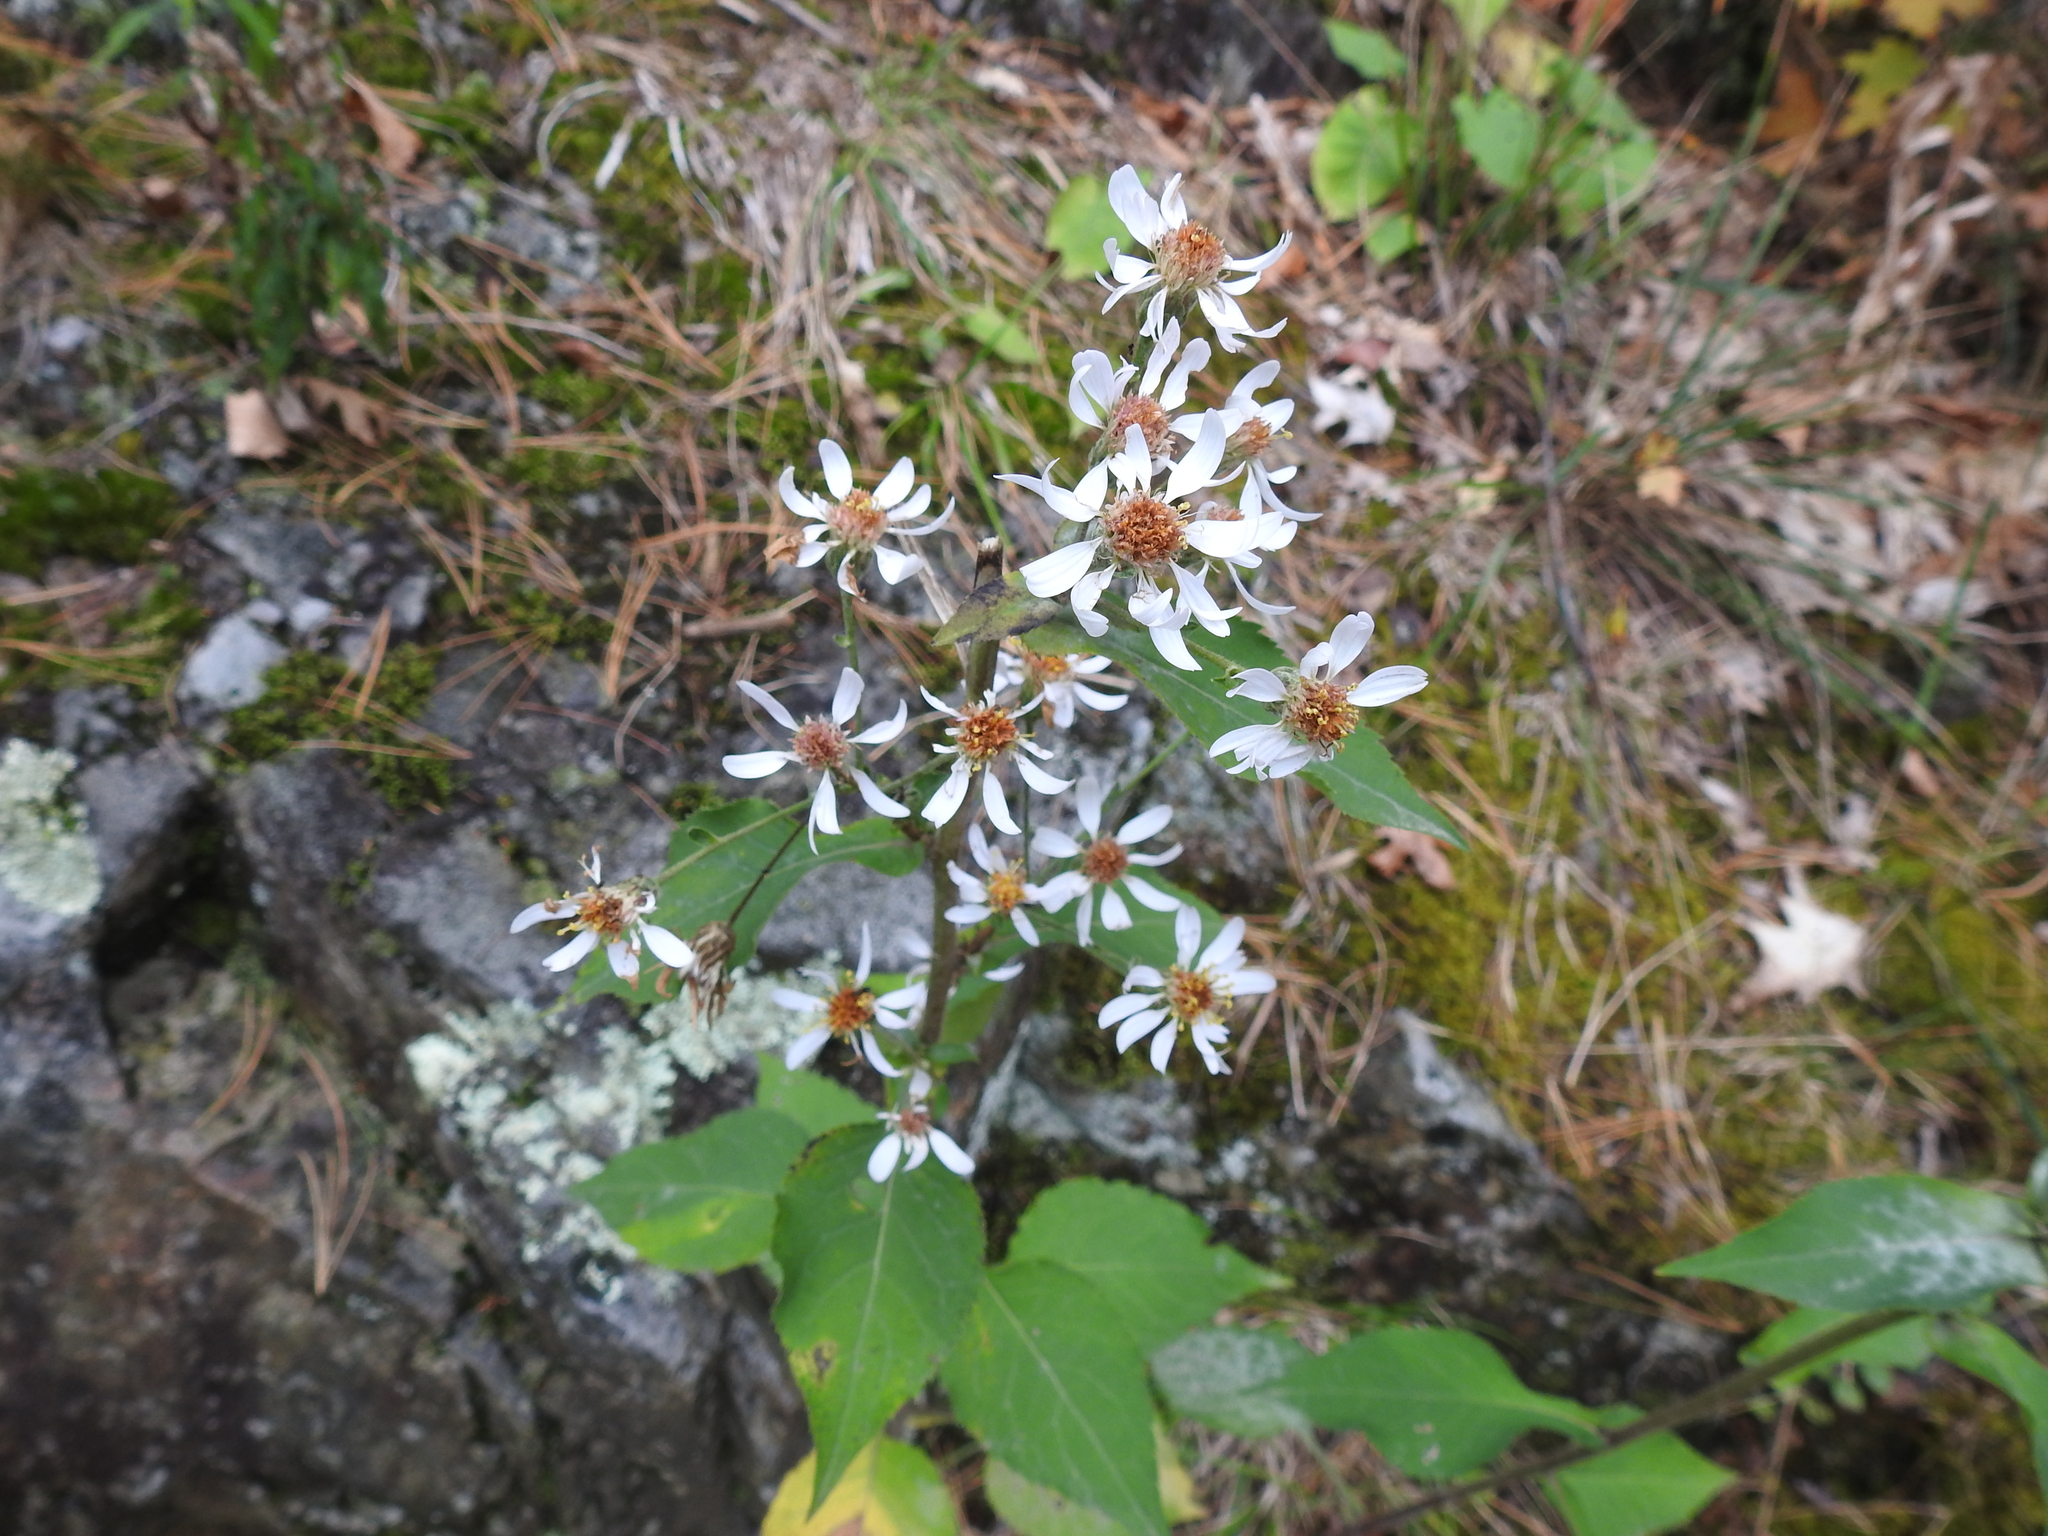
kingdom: Plantae
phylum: Tracheophyta
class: Magnoliopsida
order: Asterales
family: Asteraceae
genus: Eurybia
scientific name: Eurybia macrophylla
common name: Big-leaved aster
